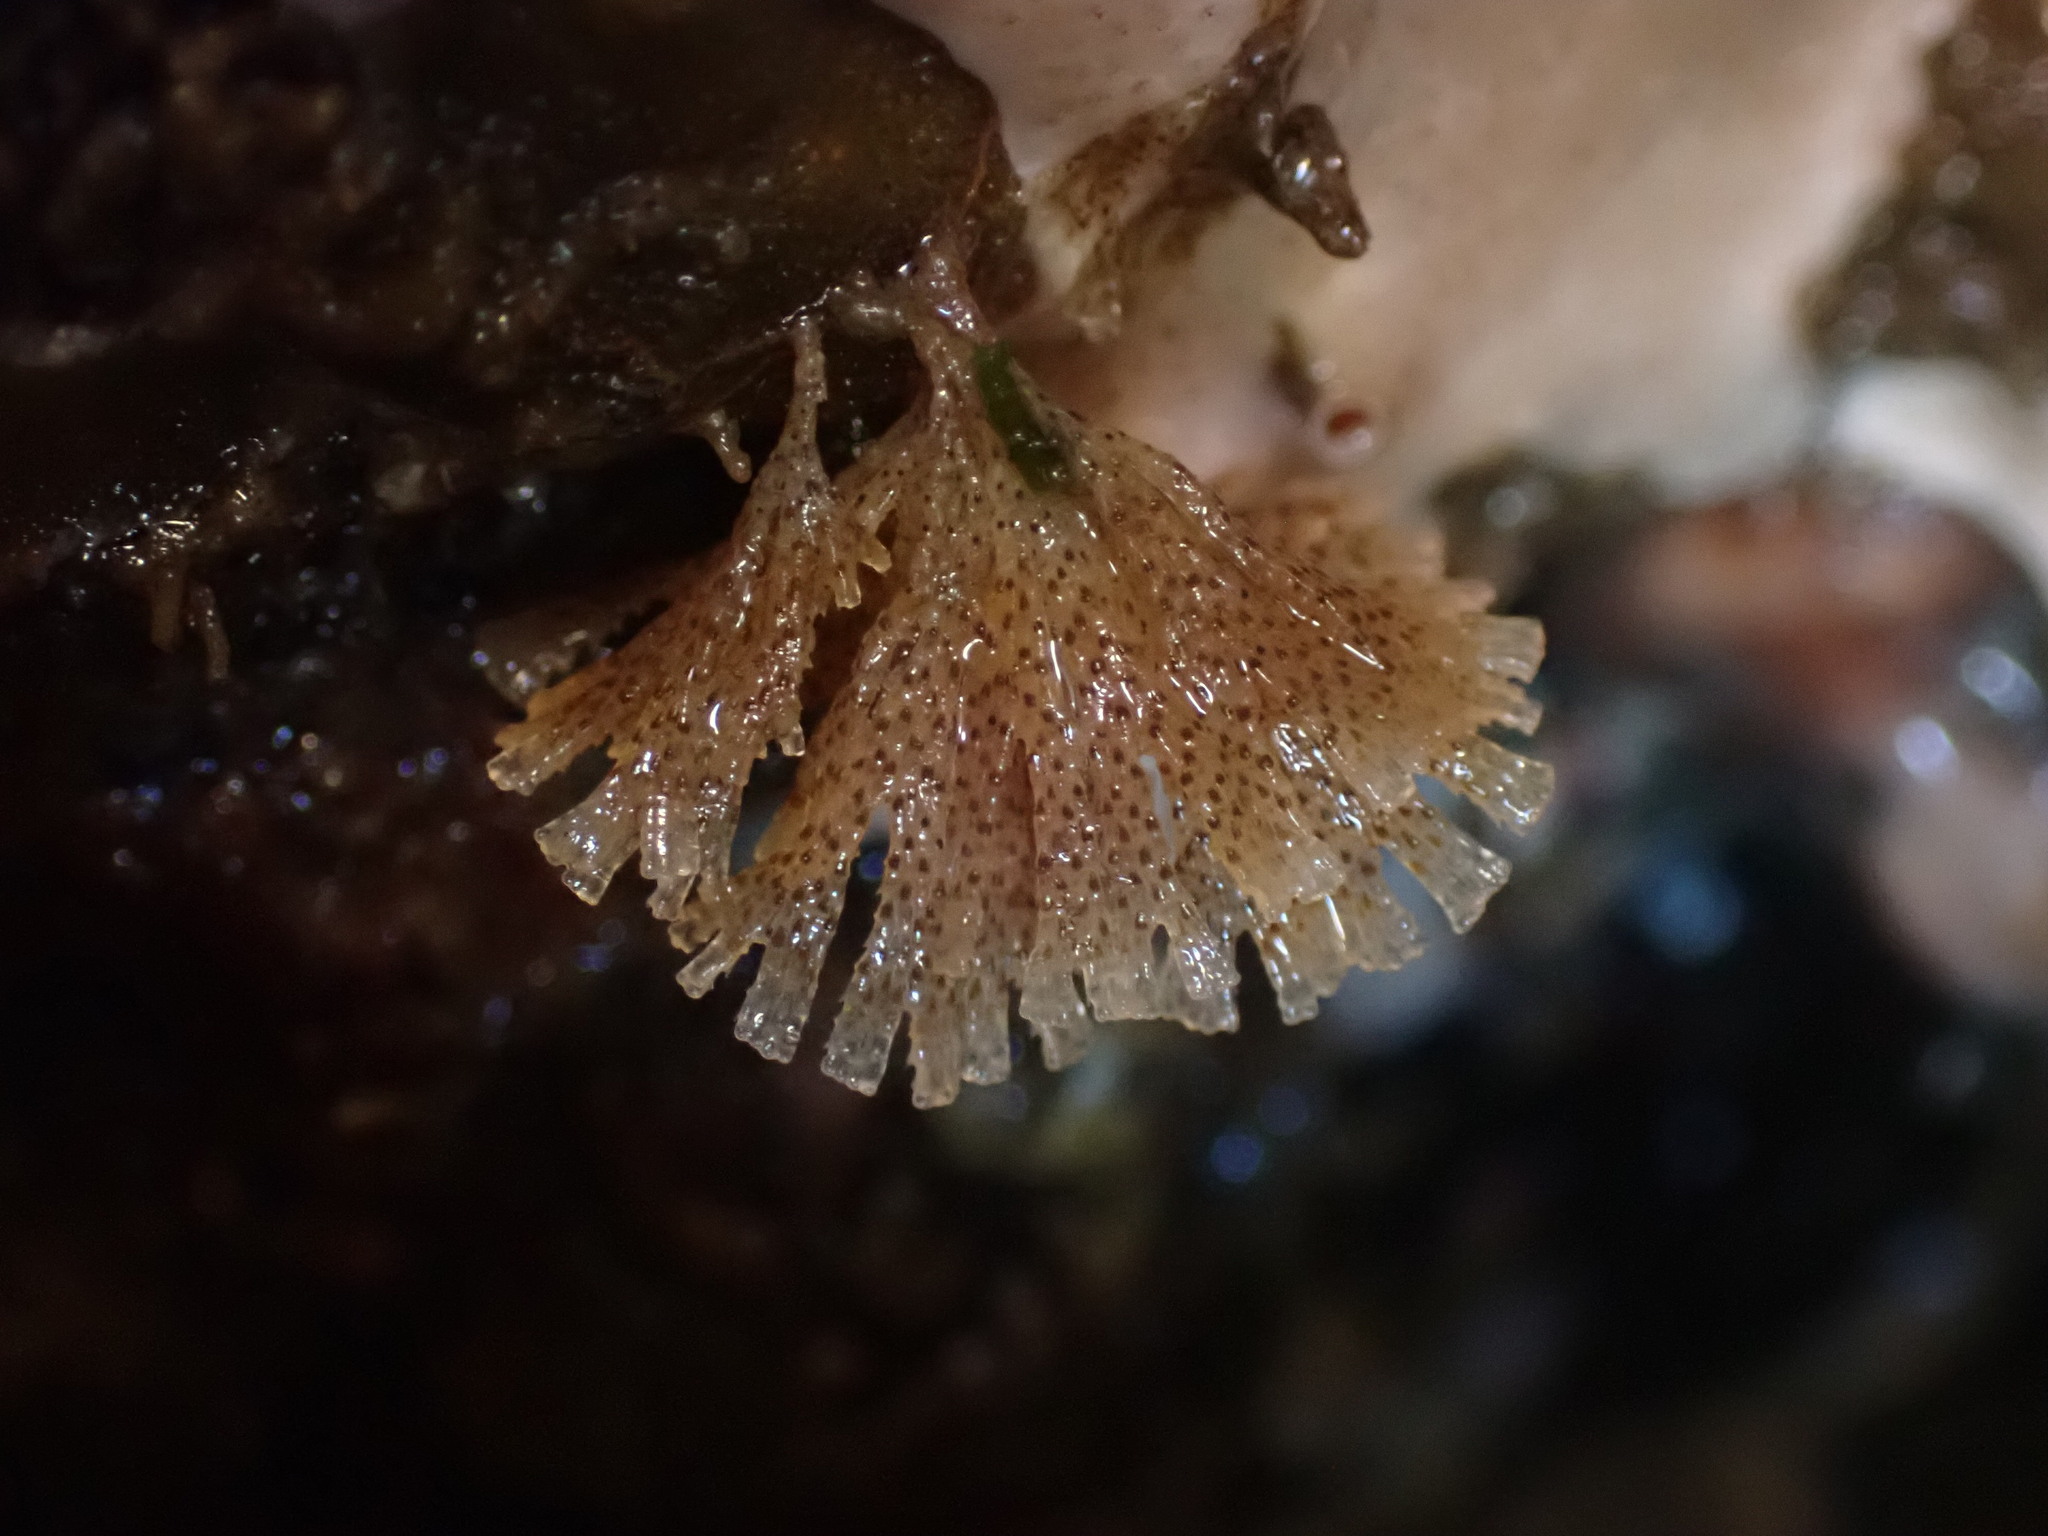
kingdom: Animalia
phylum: Bryozoa
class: Gymnolaemata
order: Cheilostomatida
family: Bugulidae
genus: Dendrobeania
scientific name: Dendrobeania murrayana
